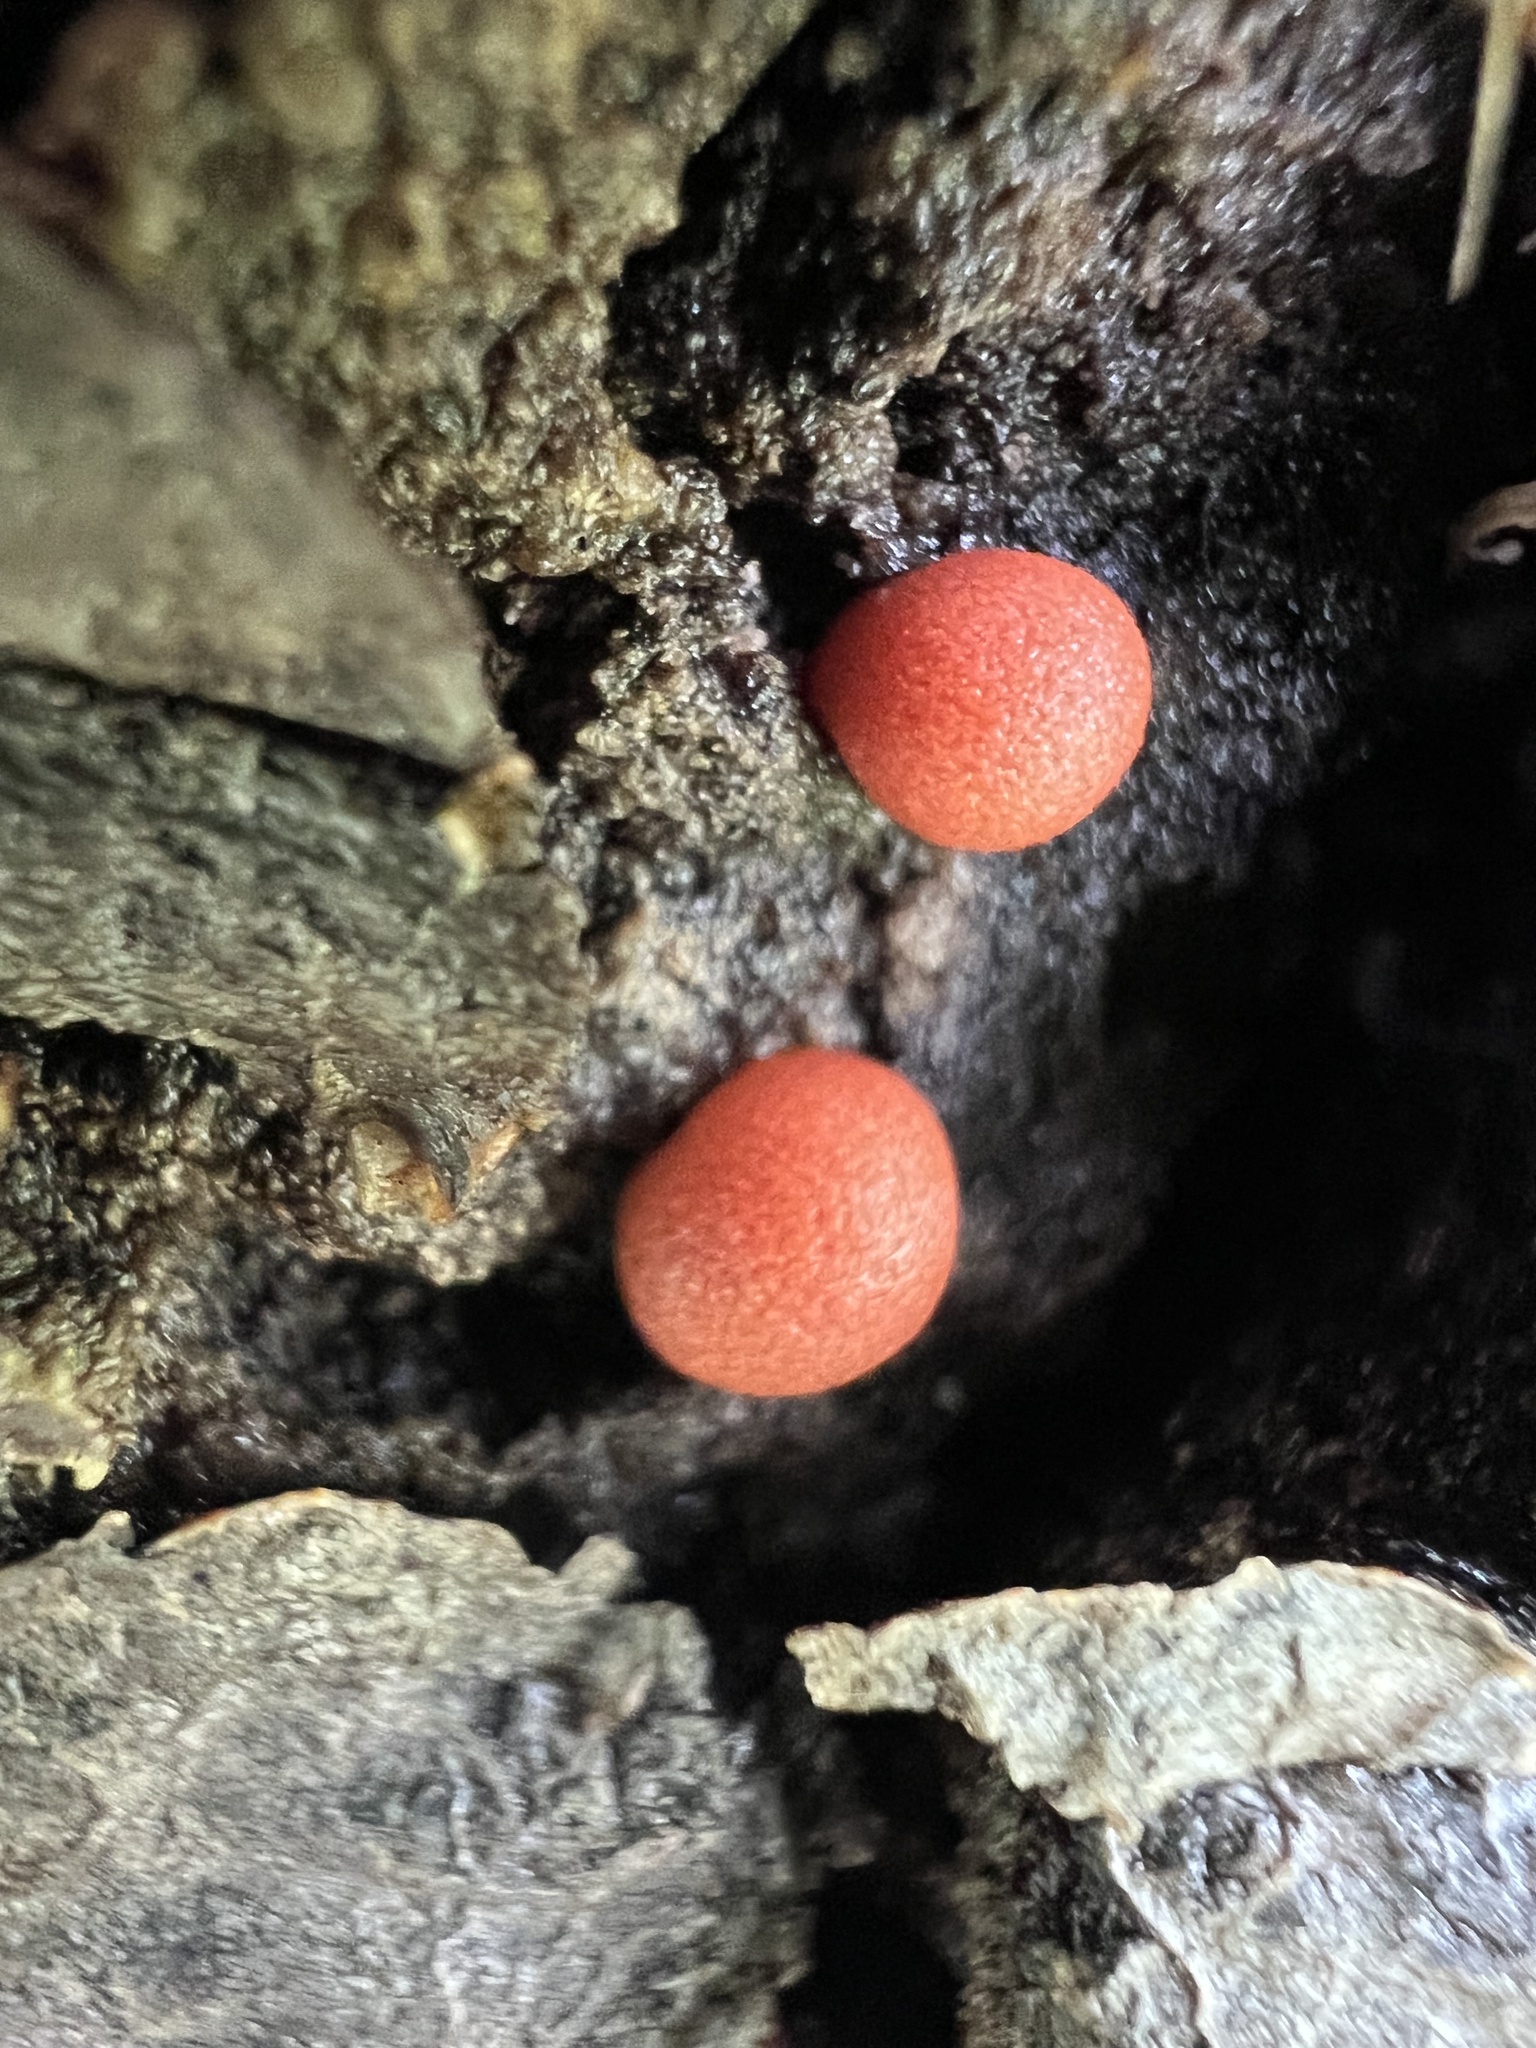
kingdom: Protozoa
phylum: Mycetozoa
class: Myxomycetes
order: Cribrariales
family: Tubiferaceae
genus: Lycogala
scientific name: Lycogala epidendrum
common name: Wolf's milk
